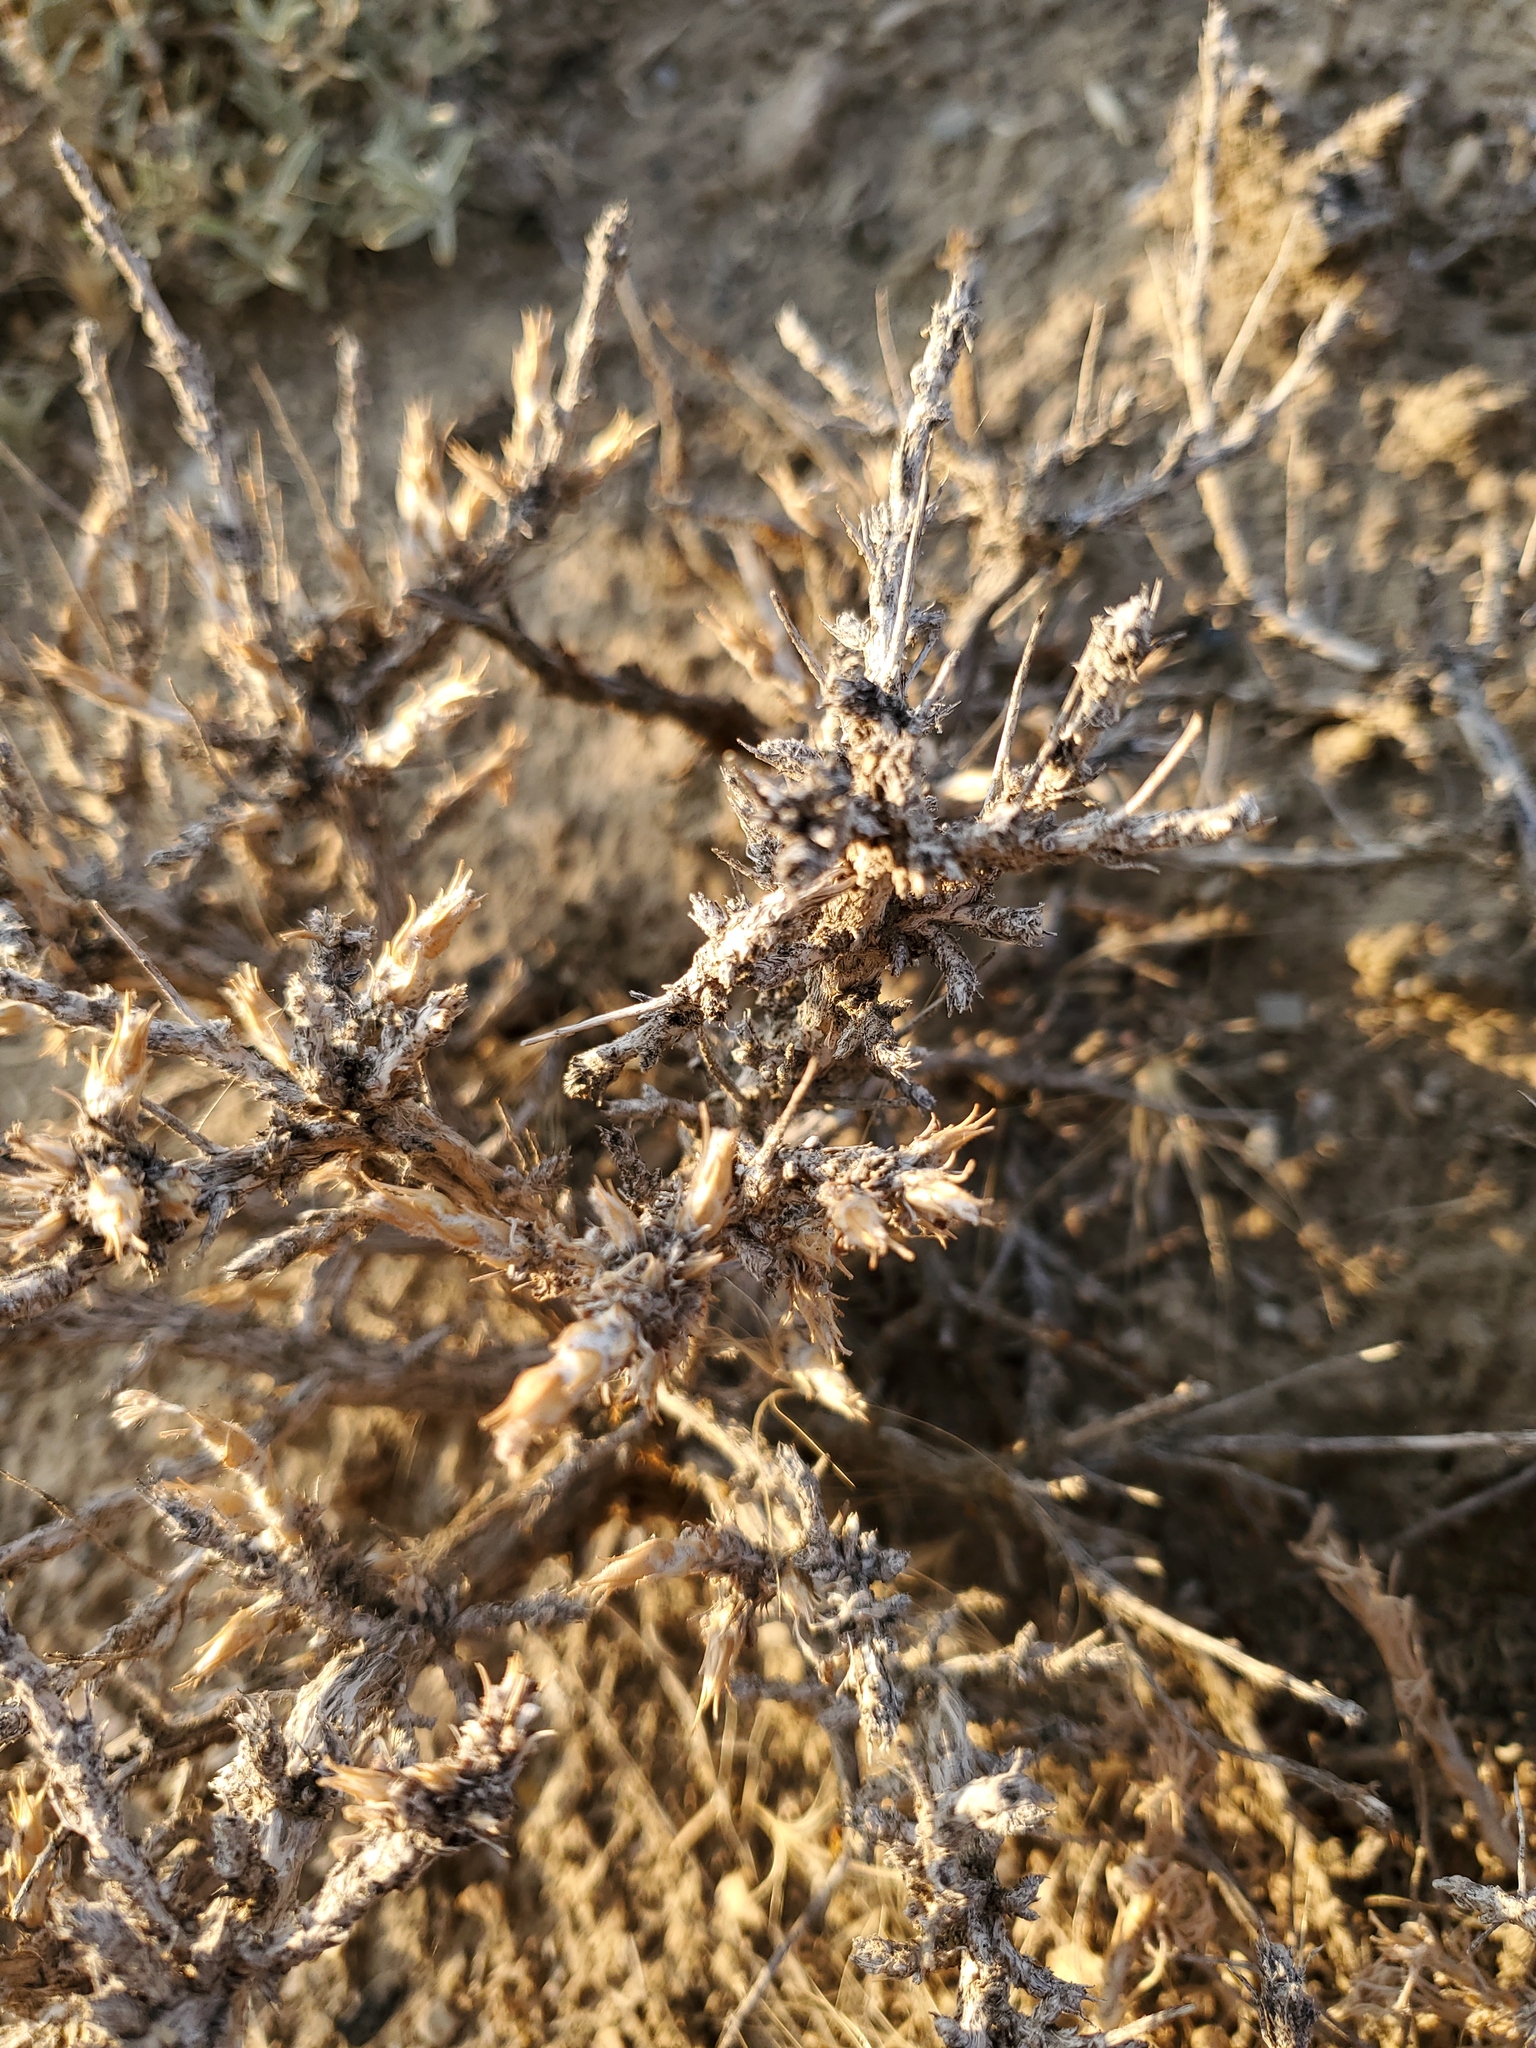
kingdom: Plantae
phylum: Tracheophyta
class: Magnoliopsida
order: Asterales
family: Asteraceae
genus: Artemisia
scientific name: Artemisia spinescens
